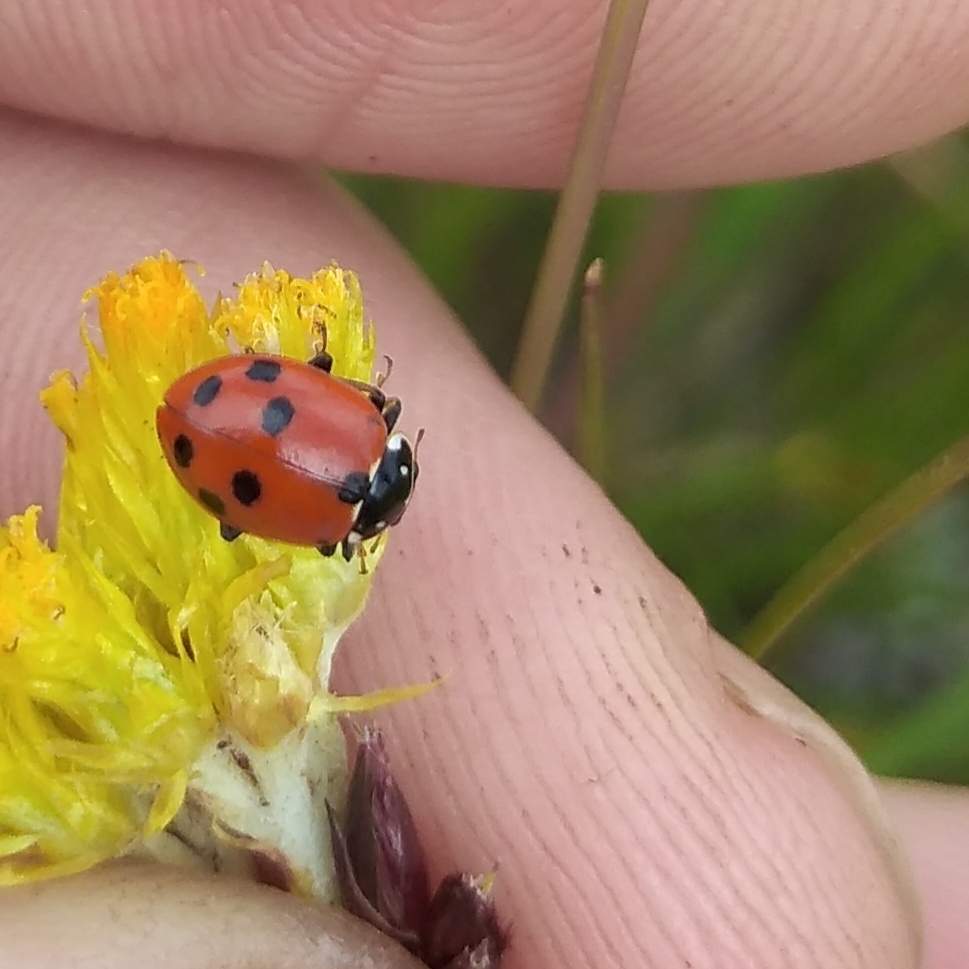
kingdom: Animalia
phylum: Arthropoda
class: Insecta
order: Coleoptera
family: Coccinellidae
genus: Hippodamia
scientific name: Hippodamia variegata
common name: Ladybird beetle
